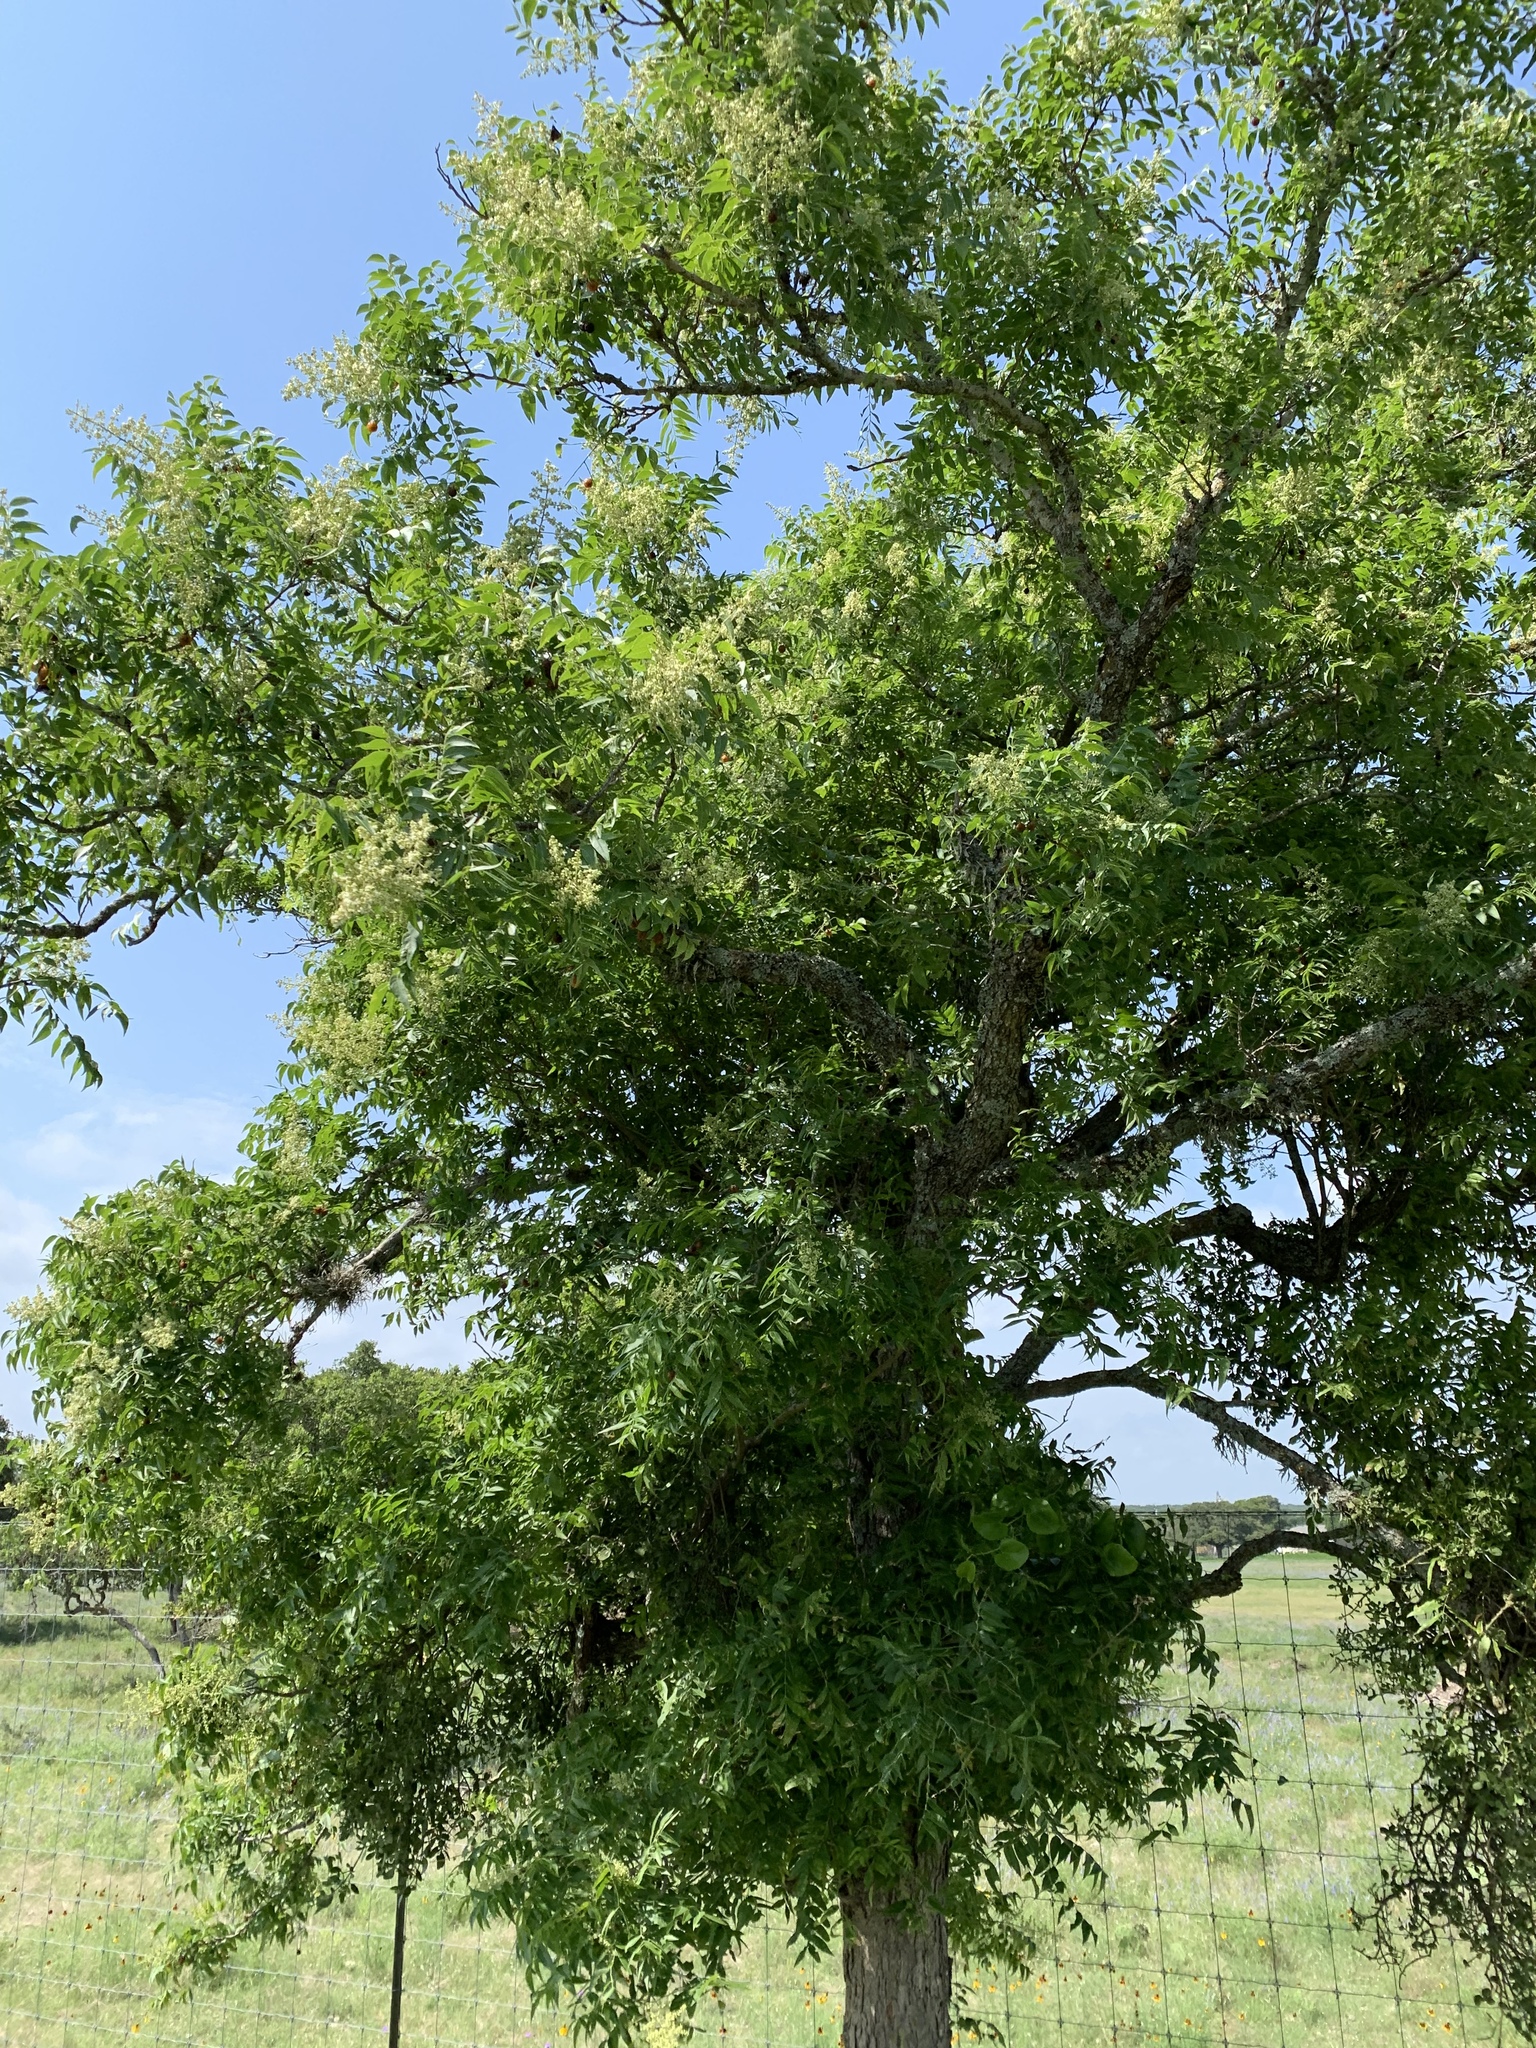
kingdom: Plantae
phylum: Tracheophyta
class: Magnoliopsida
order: Sapindales
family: Sapindaceae
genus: Sapindus
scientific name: Sapindus drummondii
